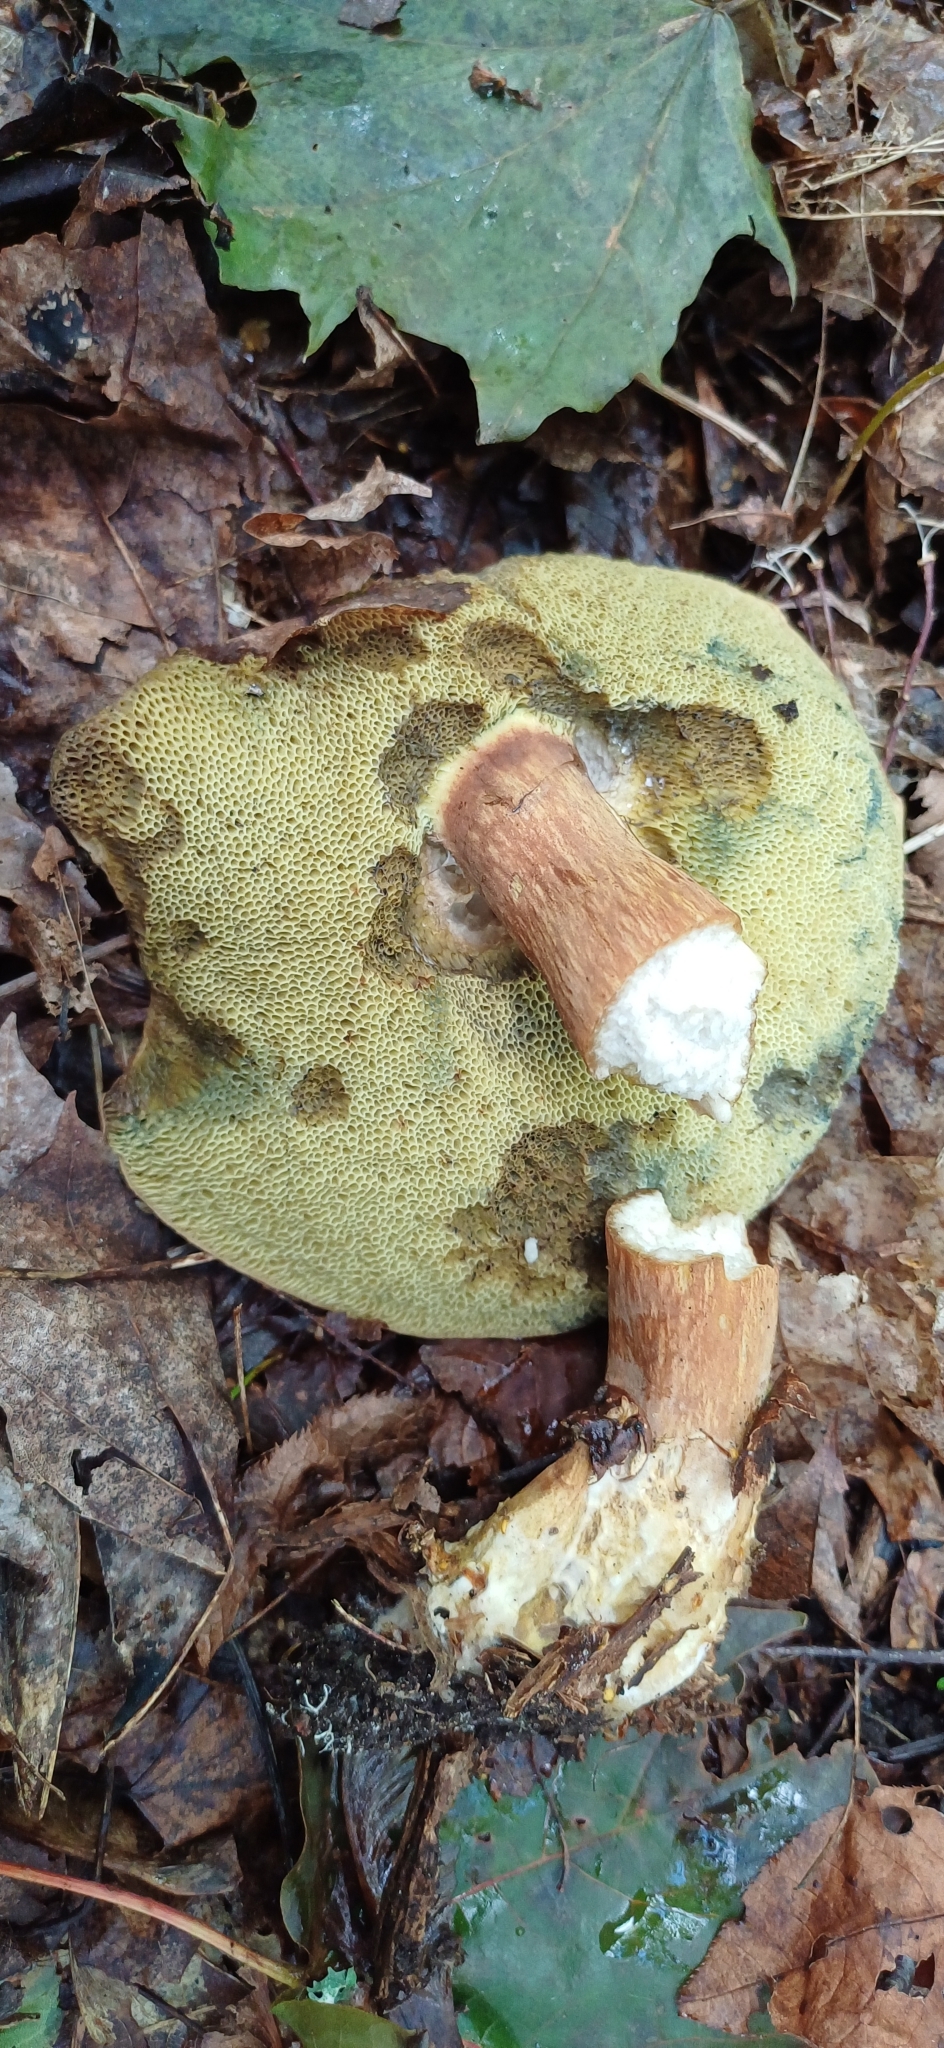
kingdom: Fungi
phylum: Basidiomycota
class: Agaricomycetes
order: Boletales
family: Boletaceae
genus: Imleria
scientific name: Imleria badia
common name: Bay bolete
